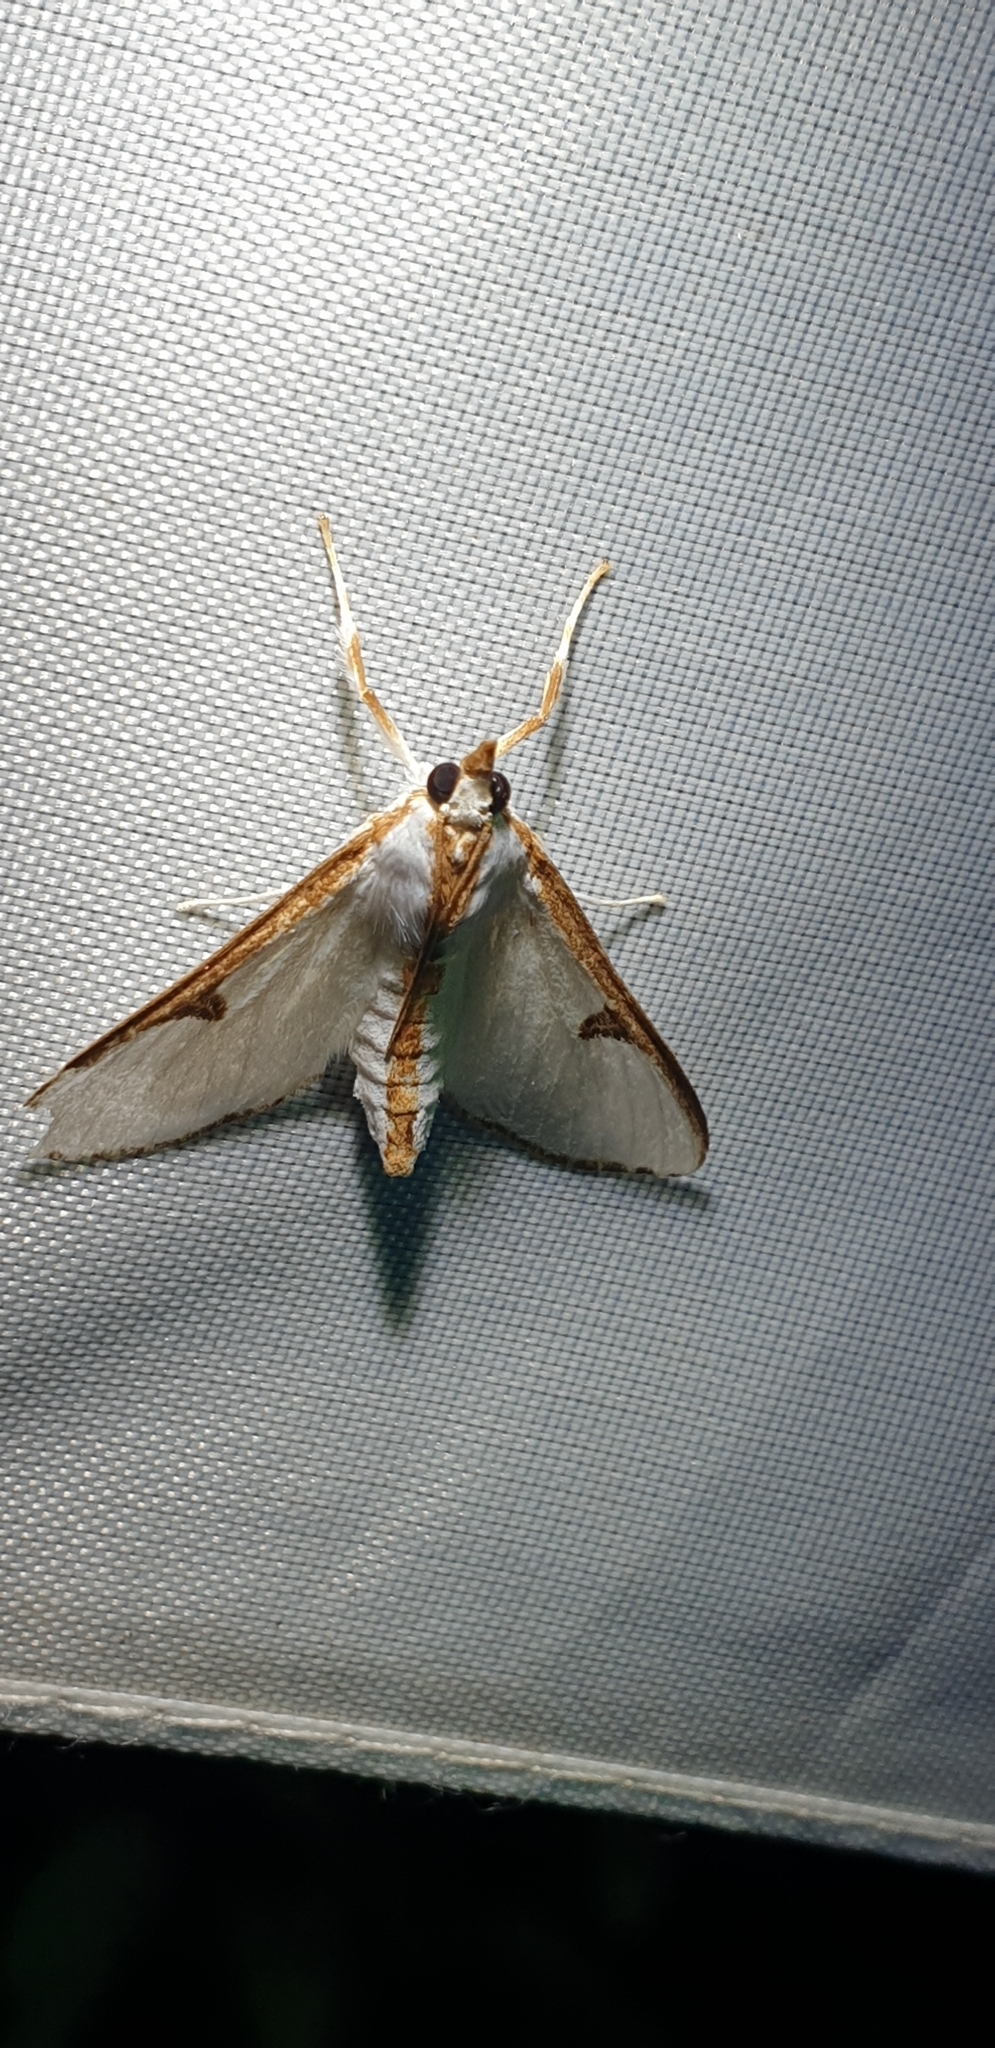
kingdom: Animalia
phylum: Arthropoda
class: Insecta
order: Lepidoptera
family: Crambidae
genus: Cirrhochrista
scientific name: Cirrhochrista arcusalis
